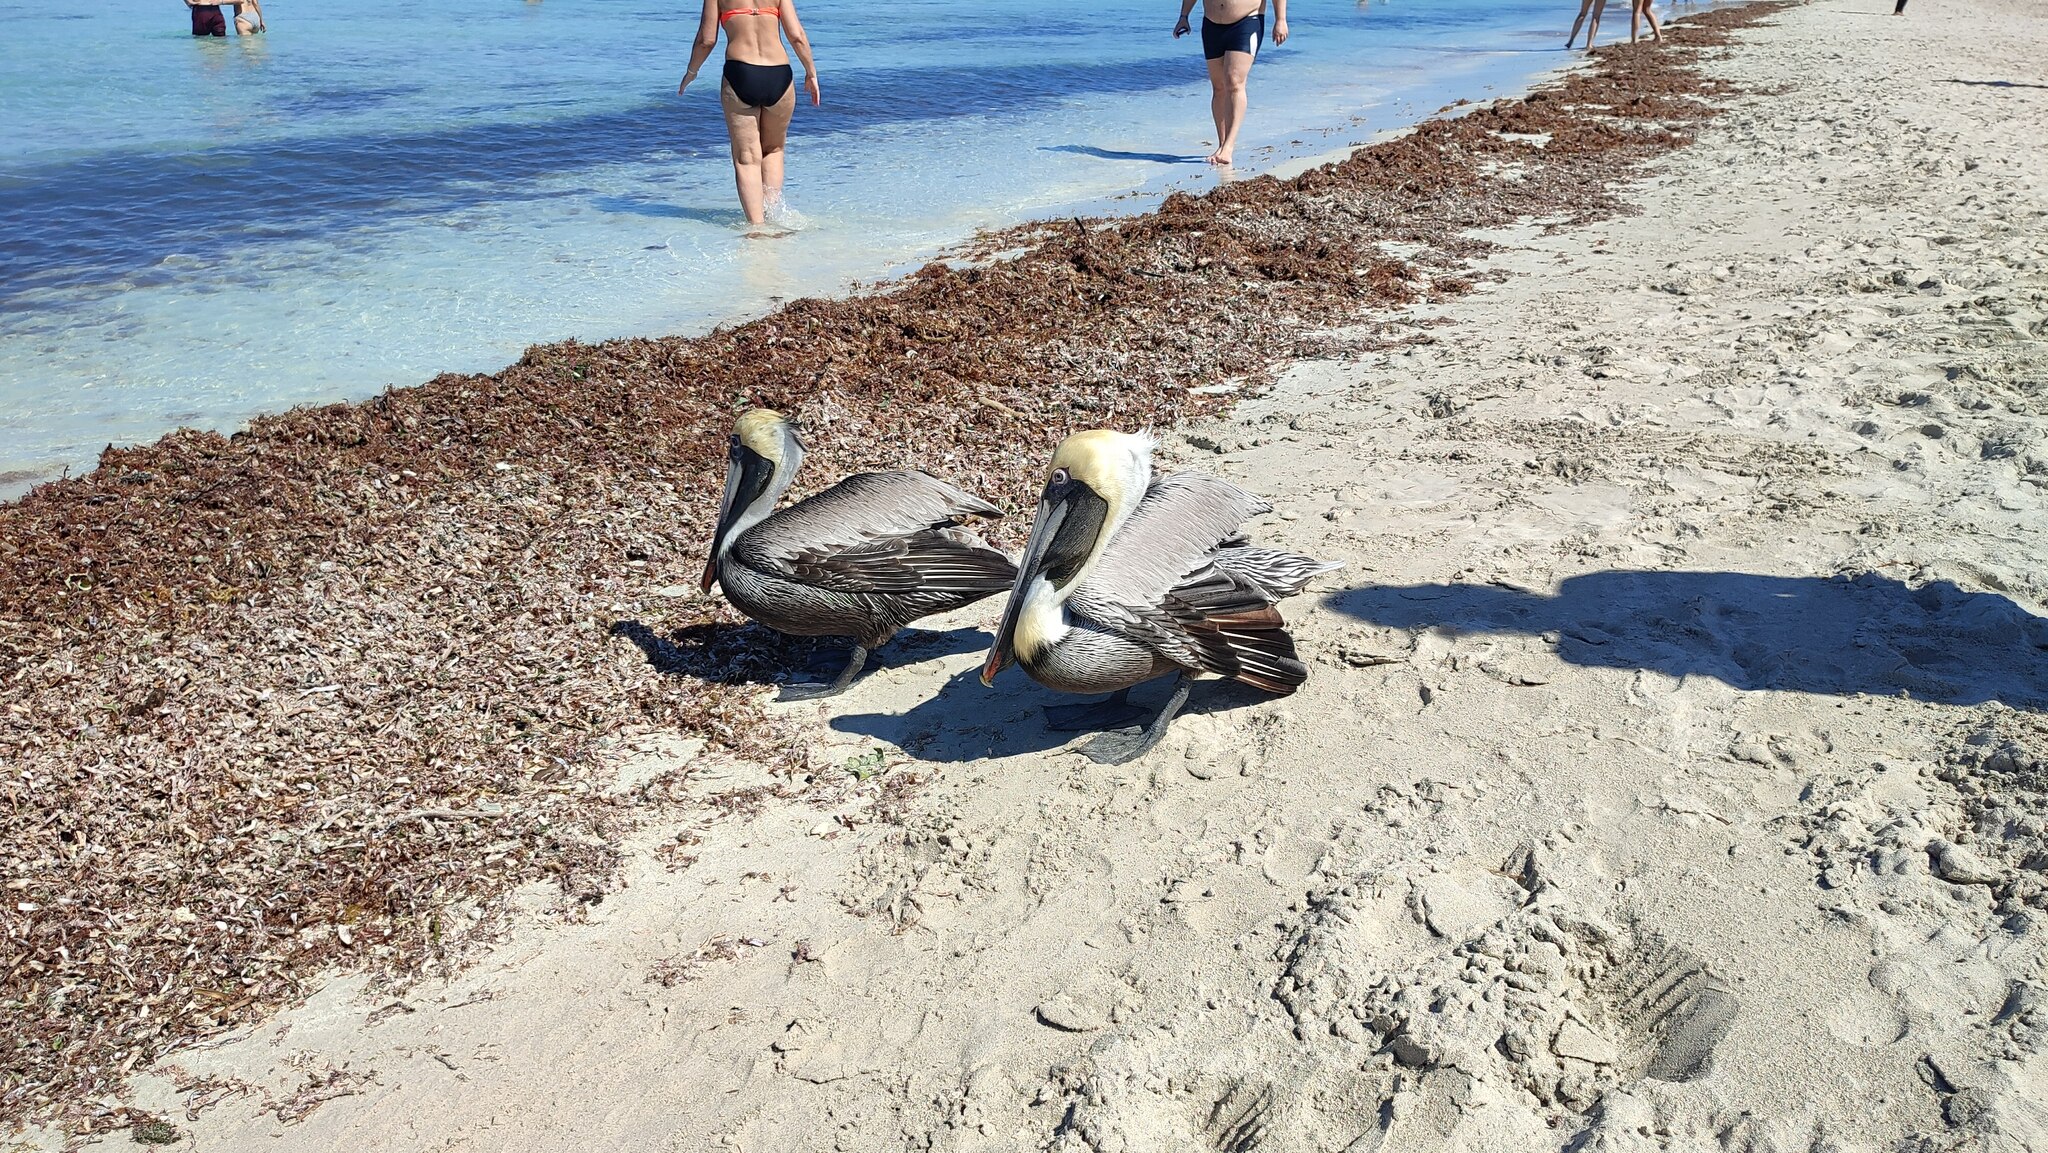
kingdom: Animalia
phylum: Chordata
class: Aves
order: Pelecaniformes
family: Pelecanidae
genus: Pelecanus
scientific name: Pelecanus occidentalis
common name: Brown pelican
